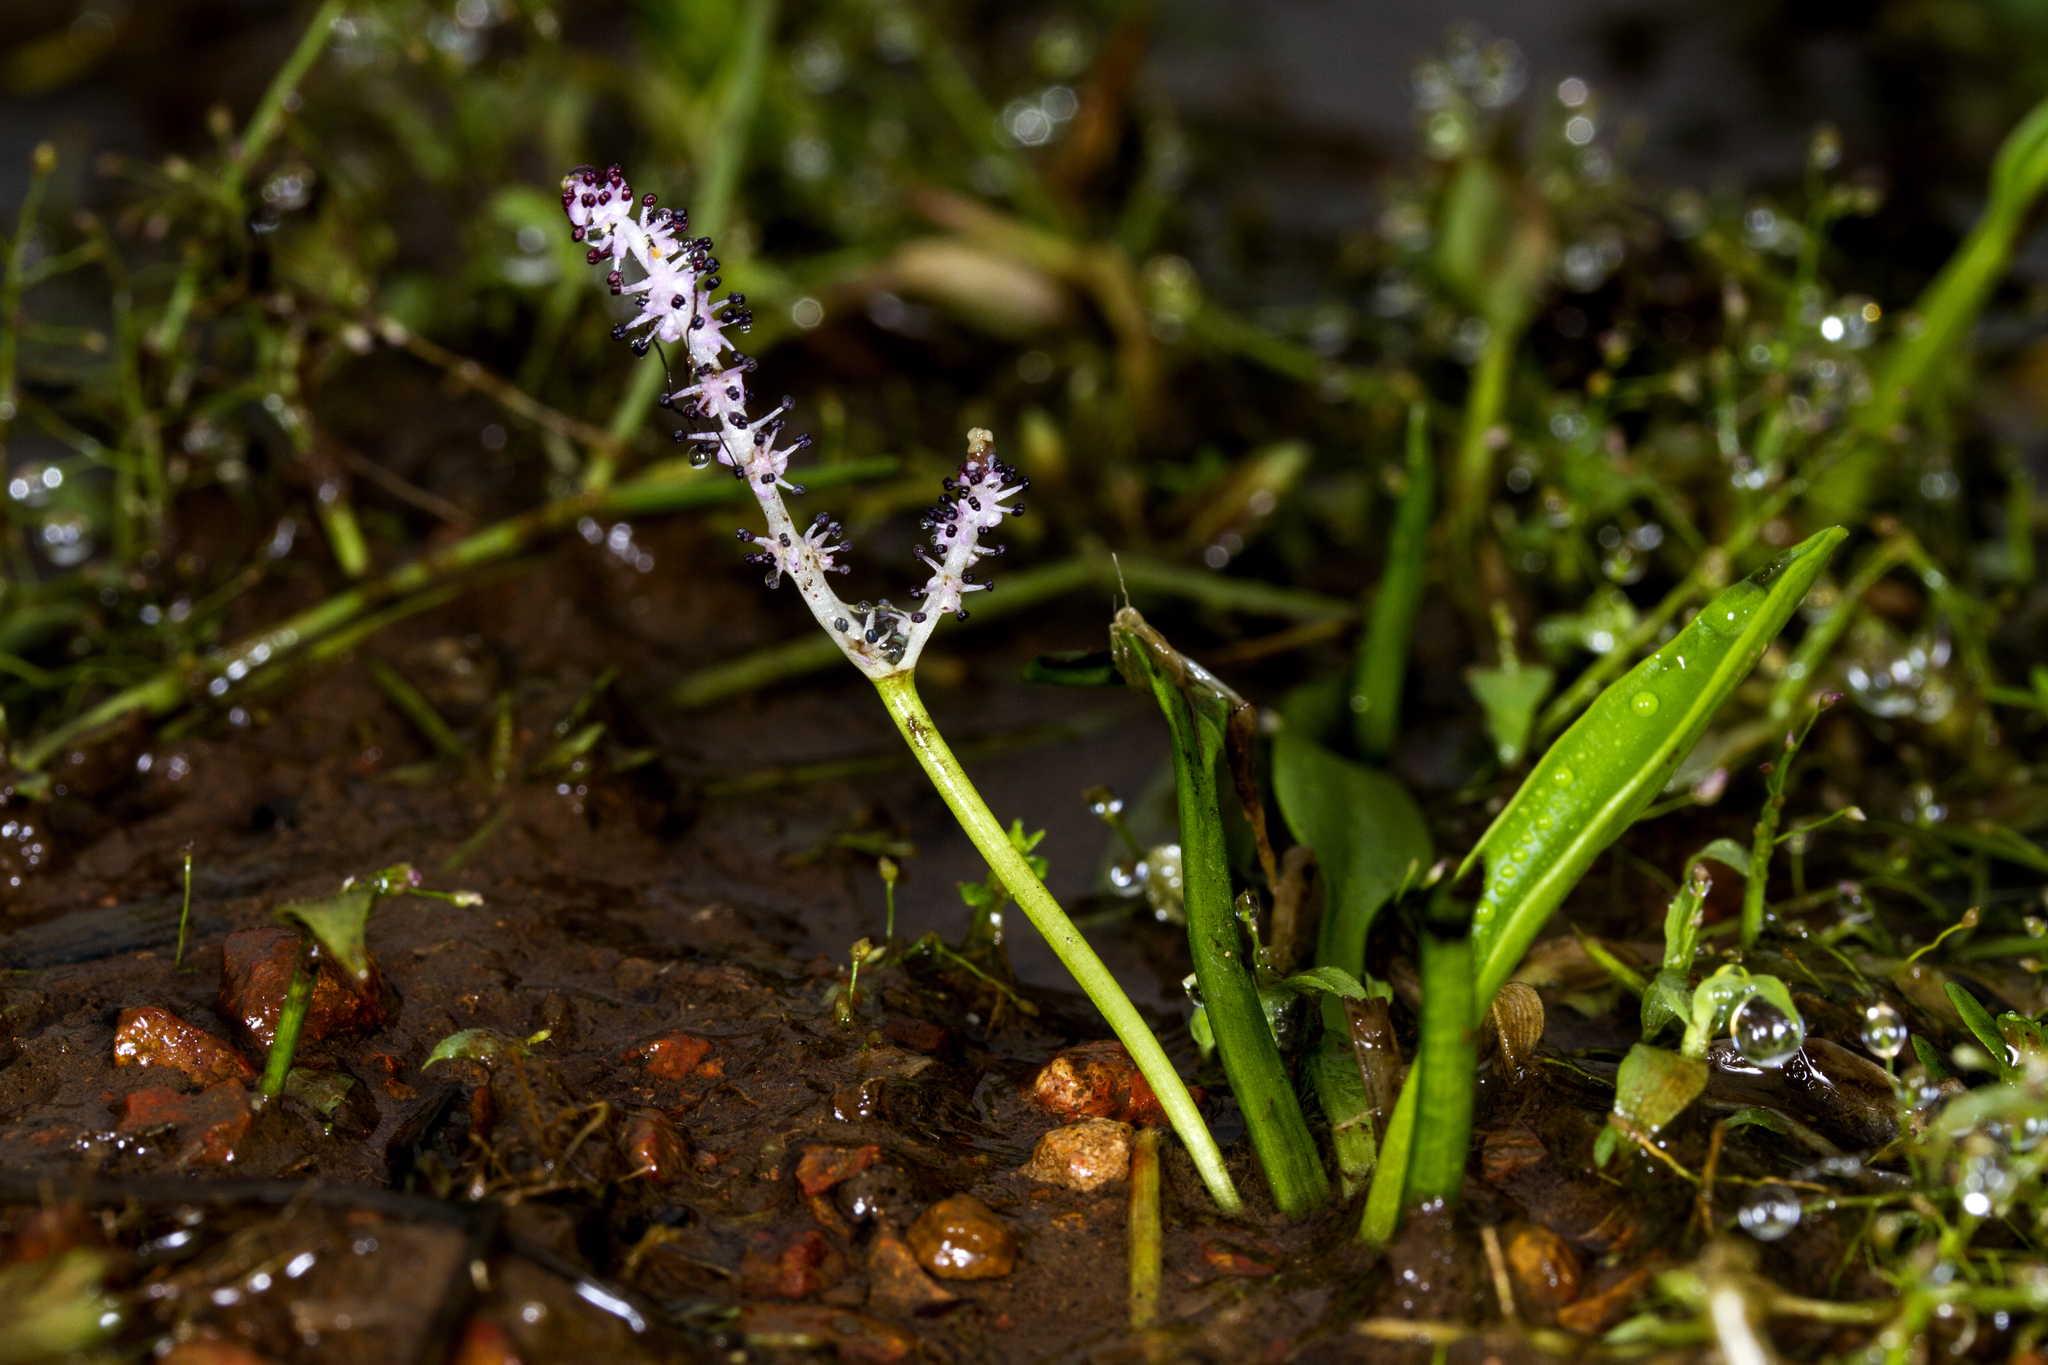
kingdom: Plantae
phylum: Tracheophyta
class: Liliopsida
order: Alismatales
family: Aponogetonaceae
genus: Aponogeton
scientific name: Aponogeton satarensis
